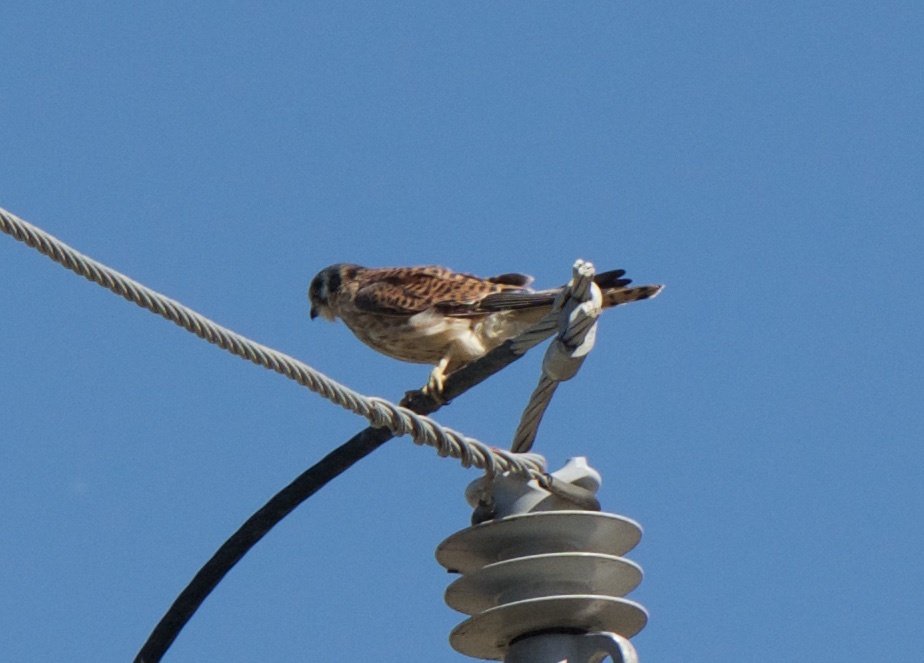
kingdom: Animalia
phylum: Chordata
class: Aves
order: Falconiformes
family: Falconidae
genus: Falco
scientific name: Falco sparverius
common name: American kestrel
